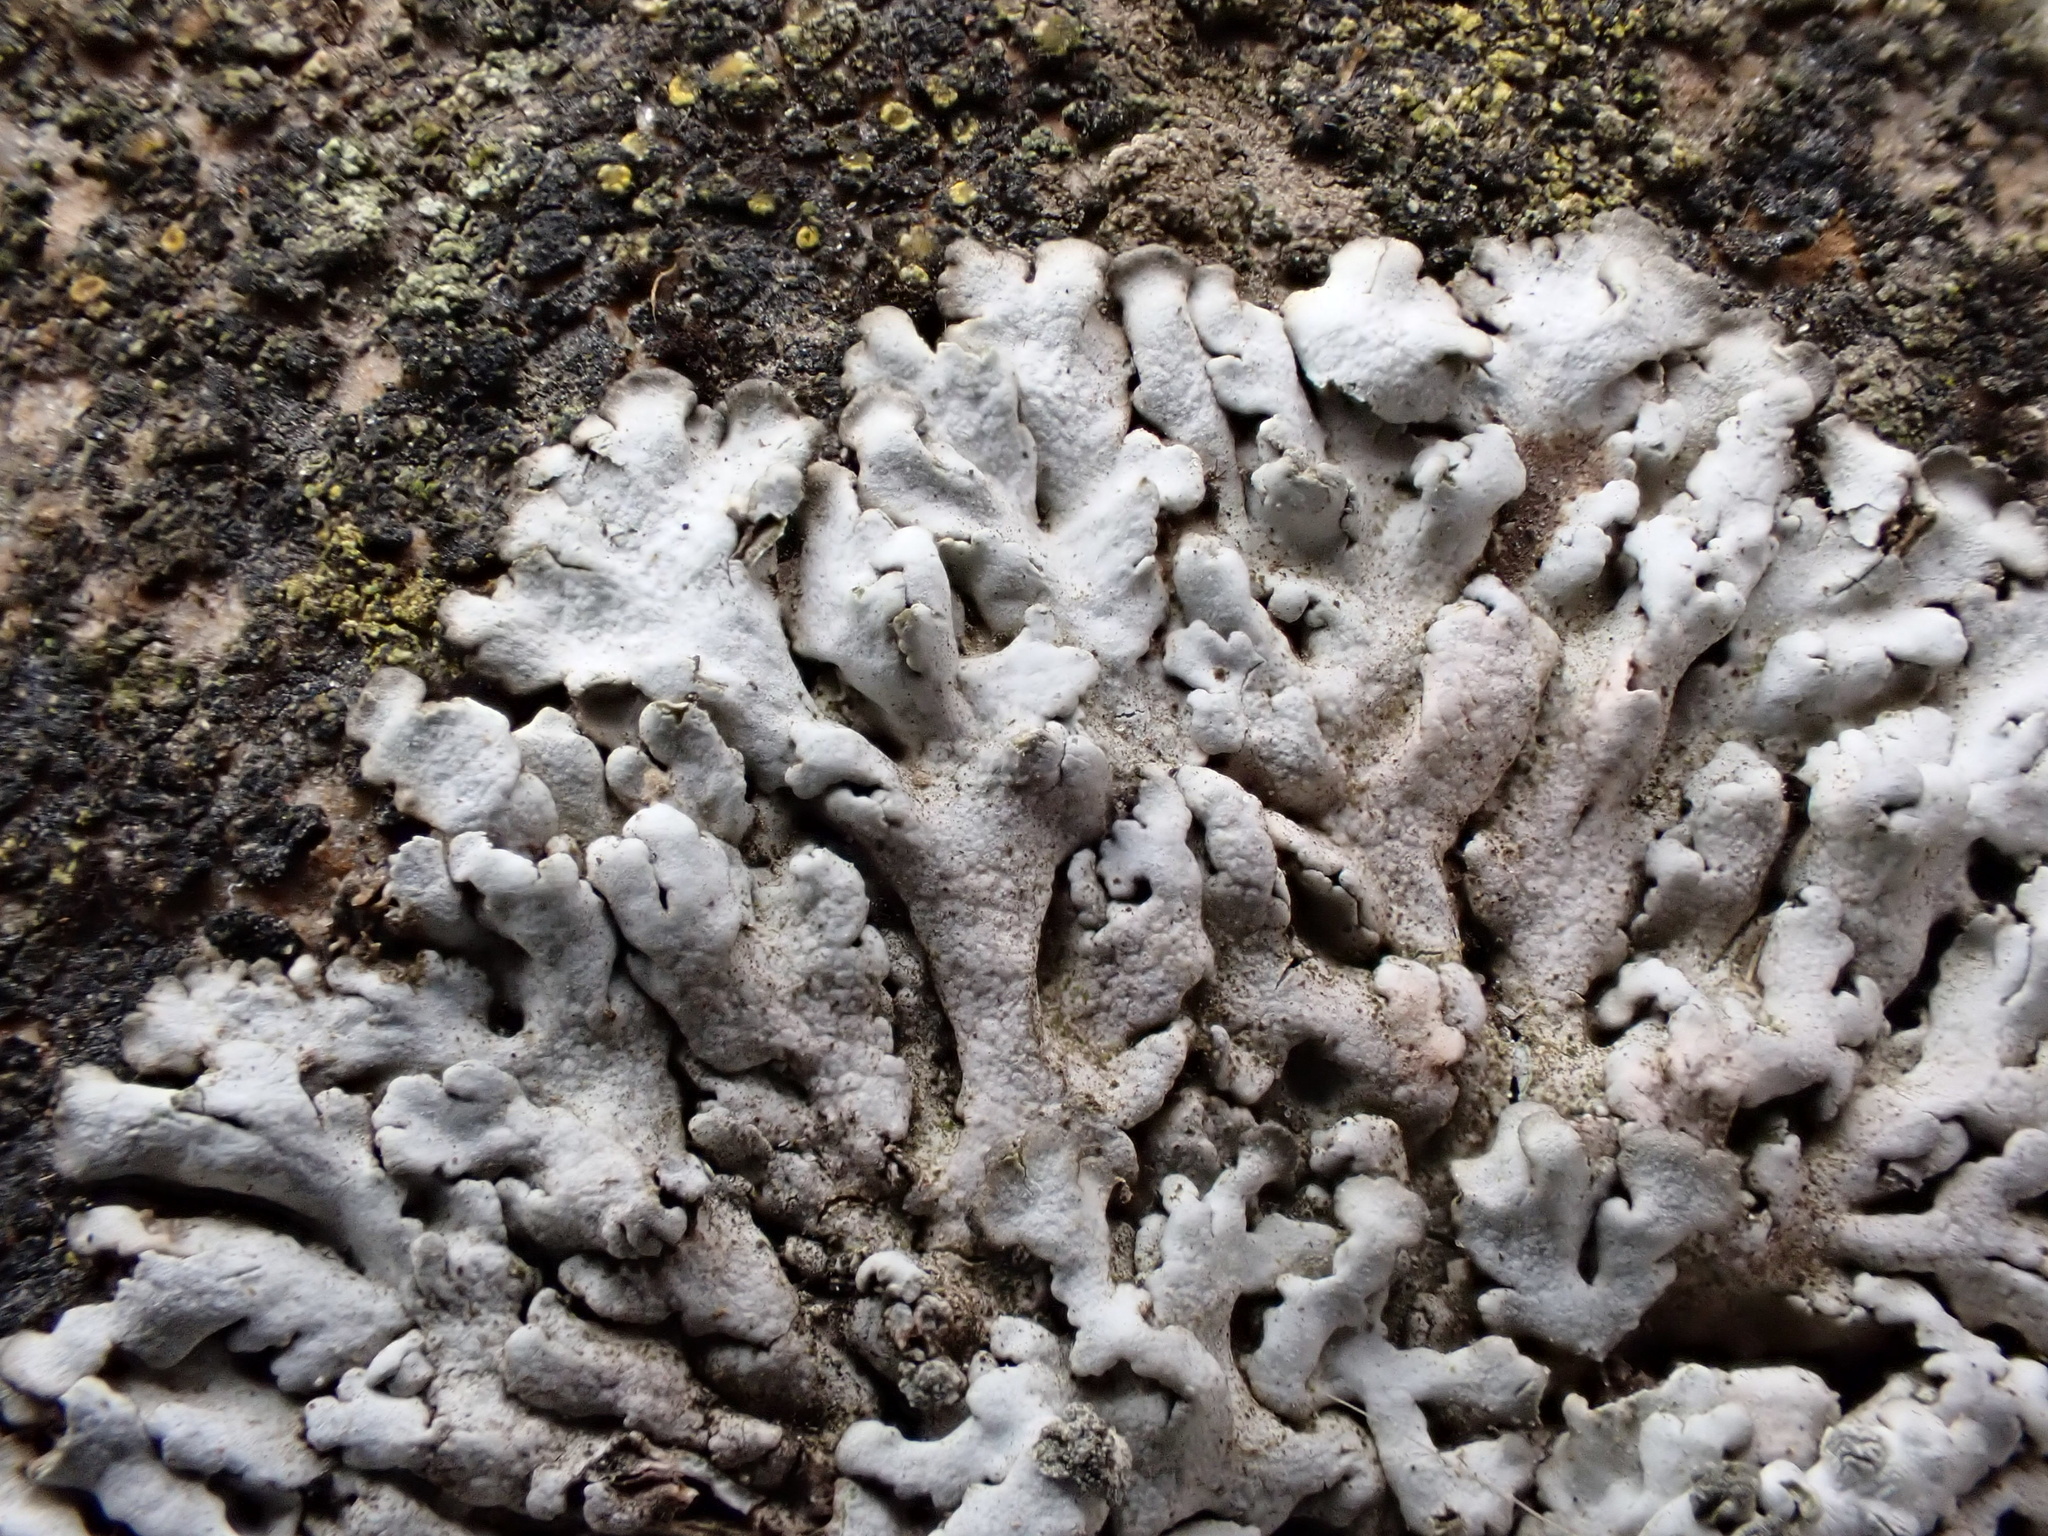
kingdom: Fungi
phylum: Ascomycota
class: Lecanoromycetes
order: Caliciales
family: Physciaceae
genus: Physcia
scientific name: Physcia caesia
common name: Blue-gray rosette lichen
